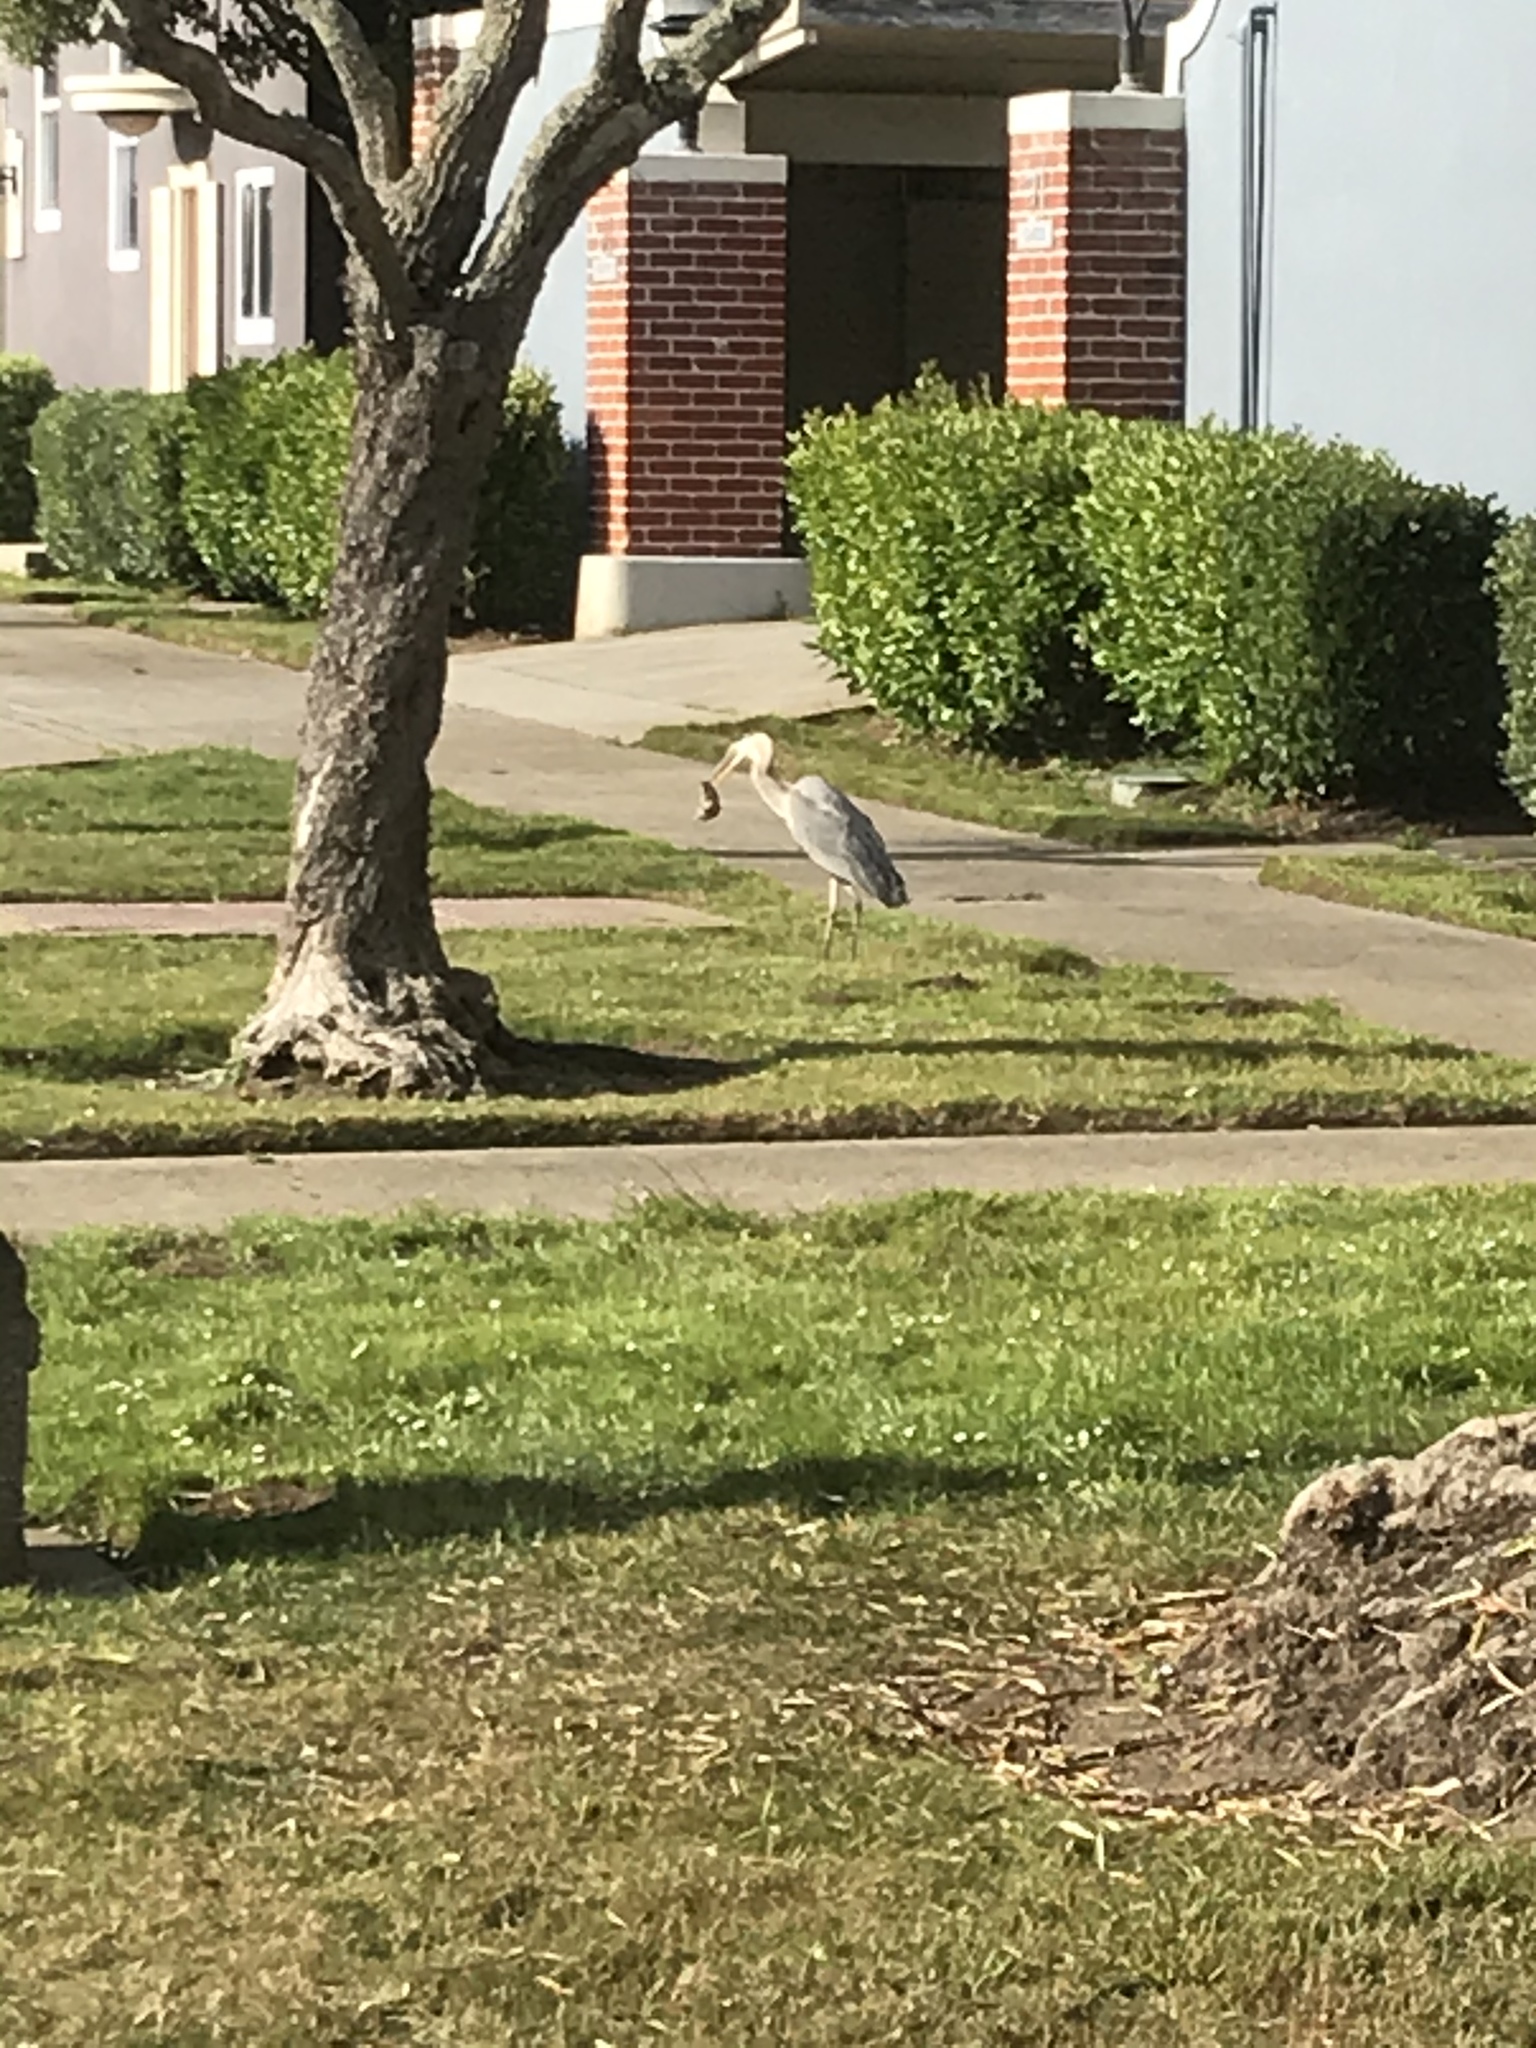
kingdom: Animalia
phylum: Chordata
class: Aves
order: Pelecaniformes
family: Ardeidae
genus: Ardea
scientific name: Ardea herodias
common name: Great blue heron
